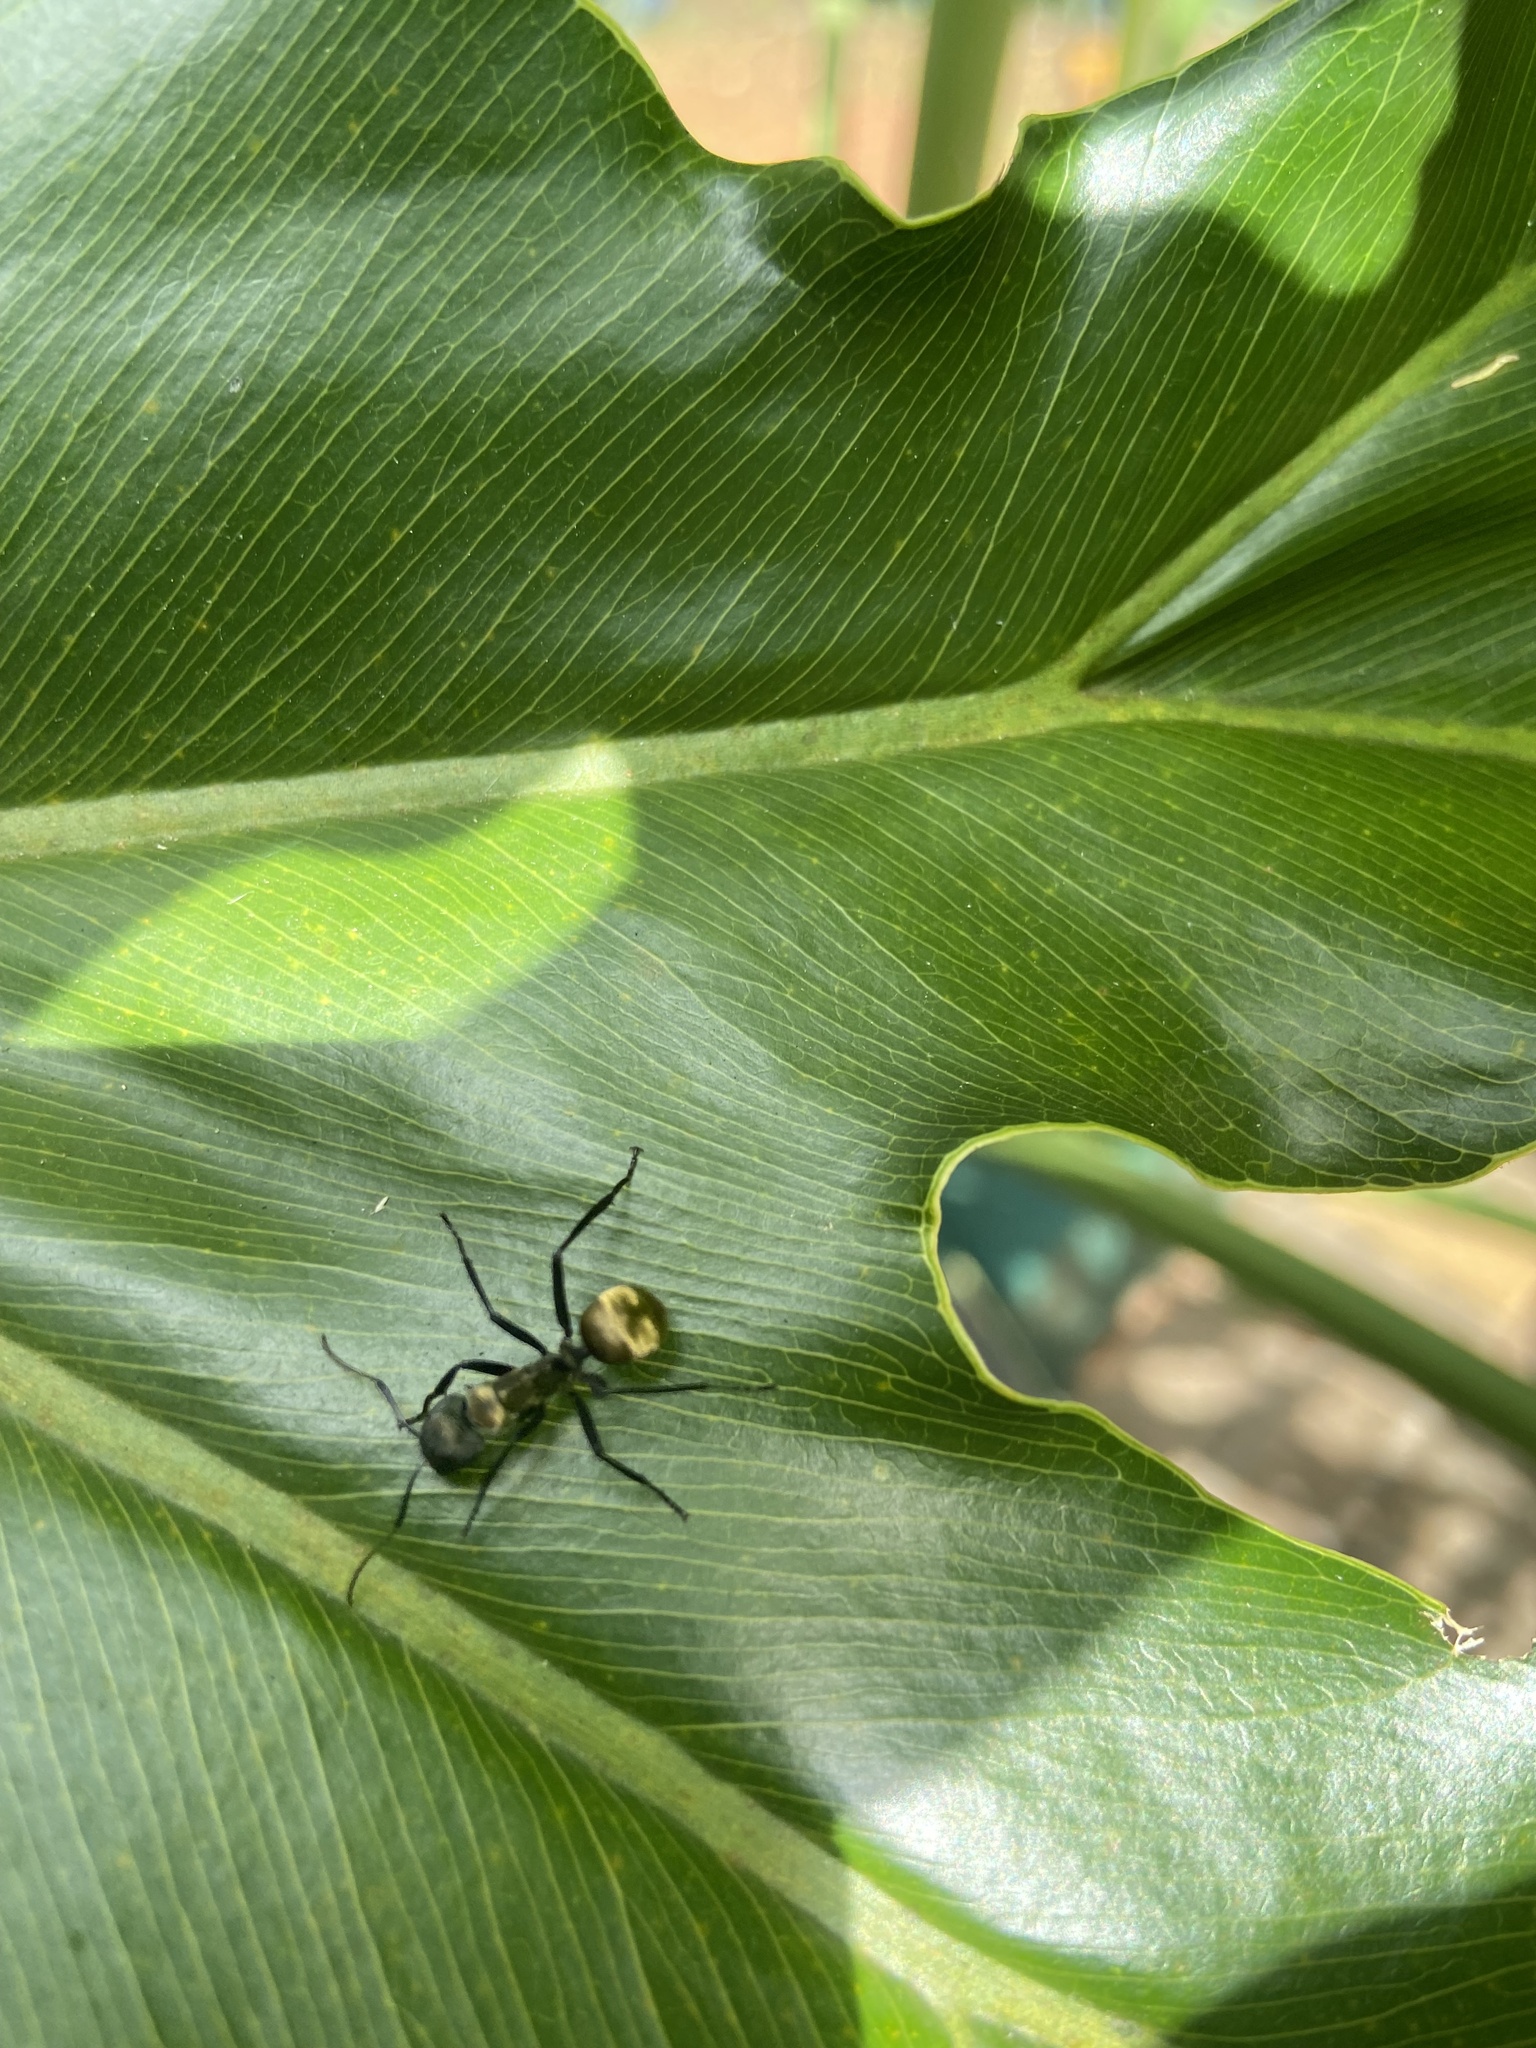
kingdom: Animalia
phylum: Arthropoda
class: Insecta
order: Hymenoptera
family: Formicidae
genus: Camponotus
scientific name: Camponotus sericeiventris
